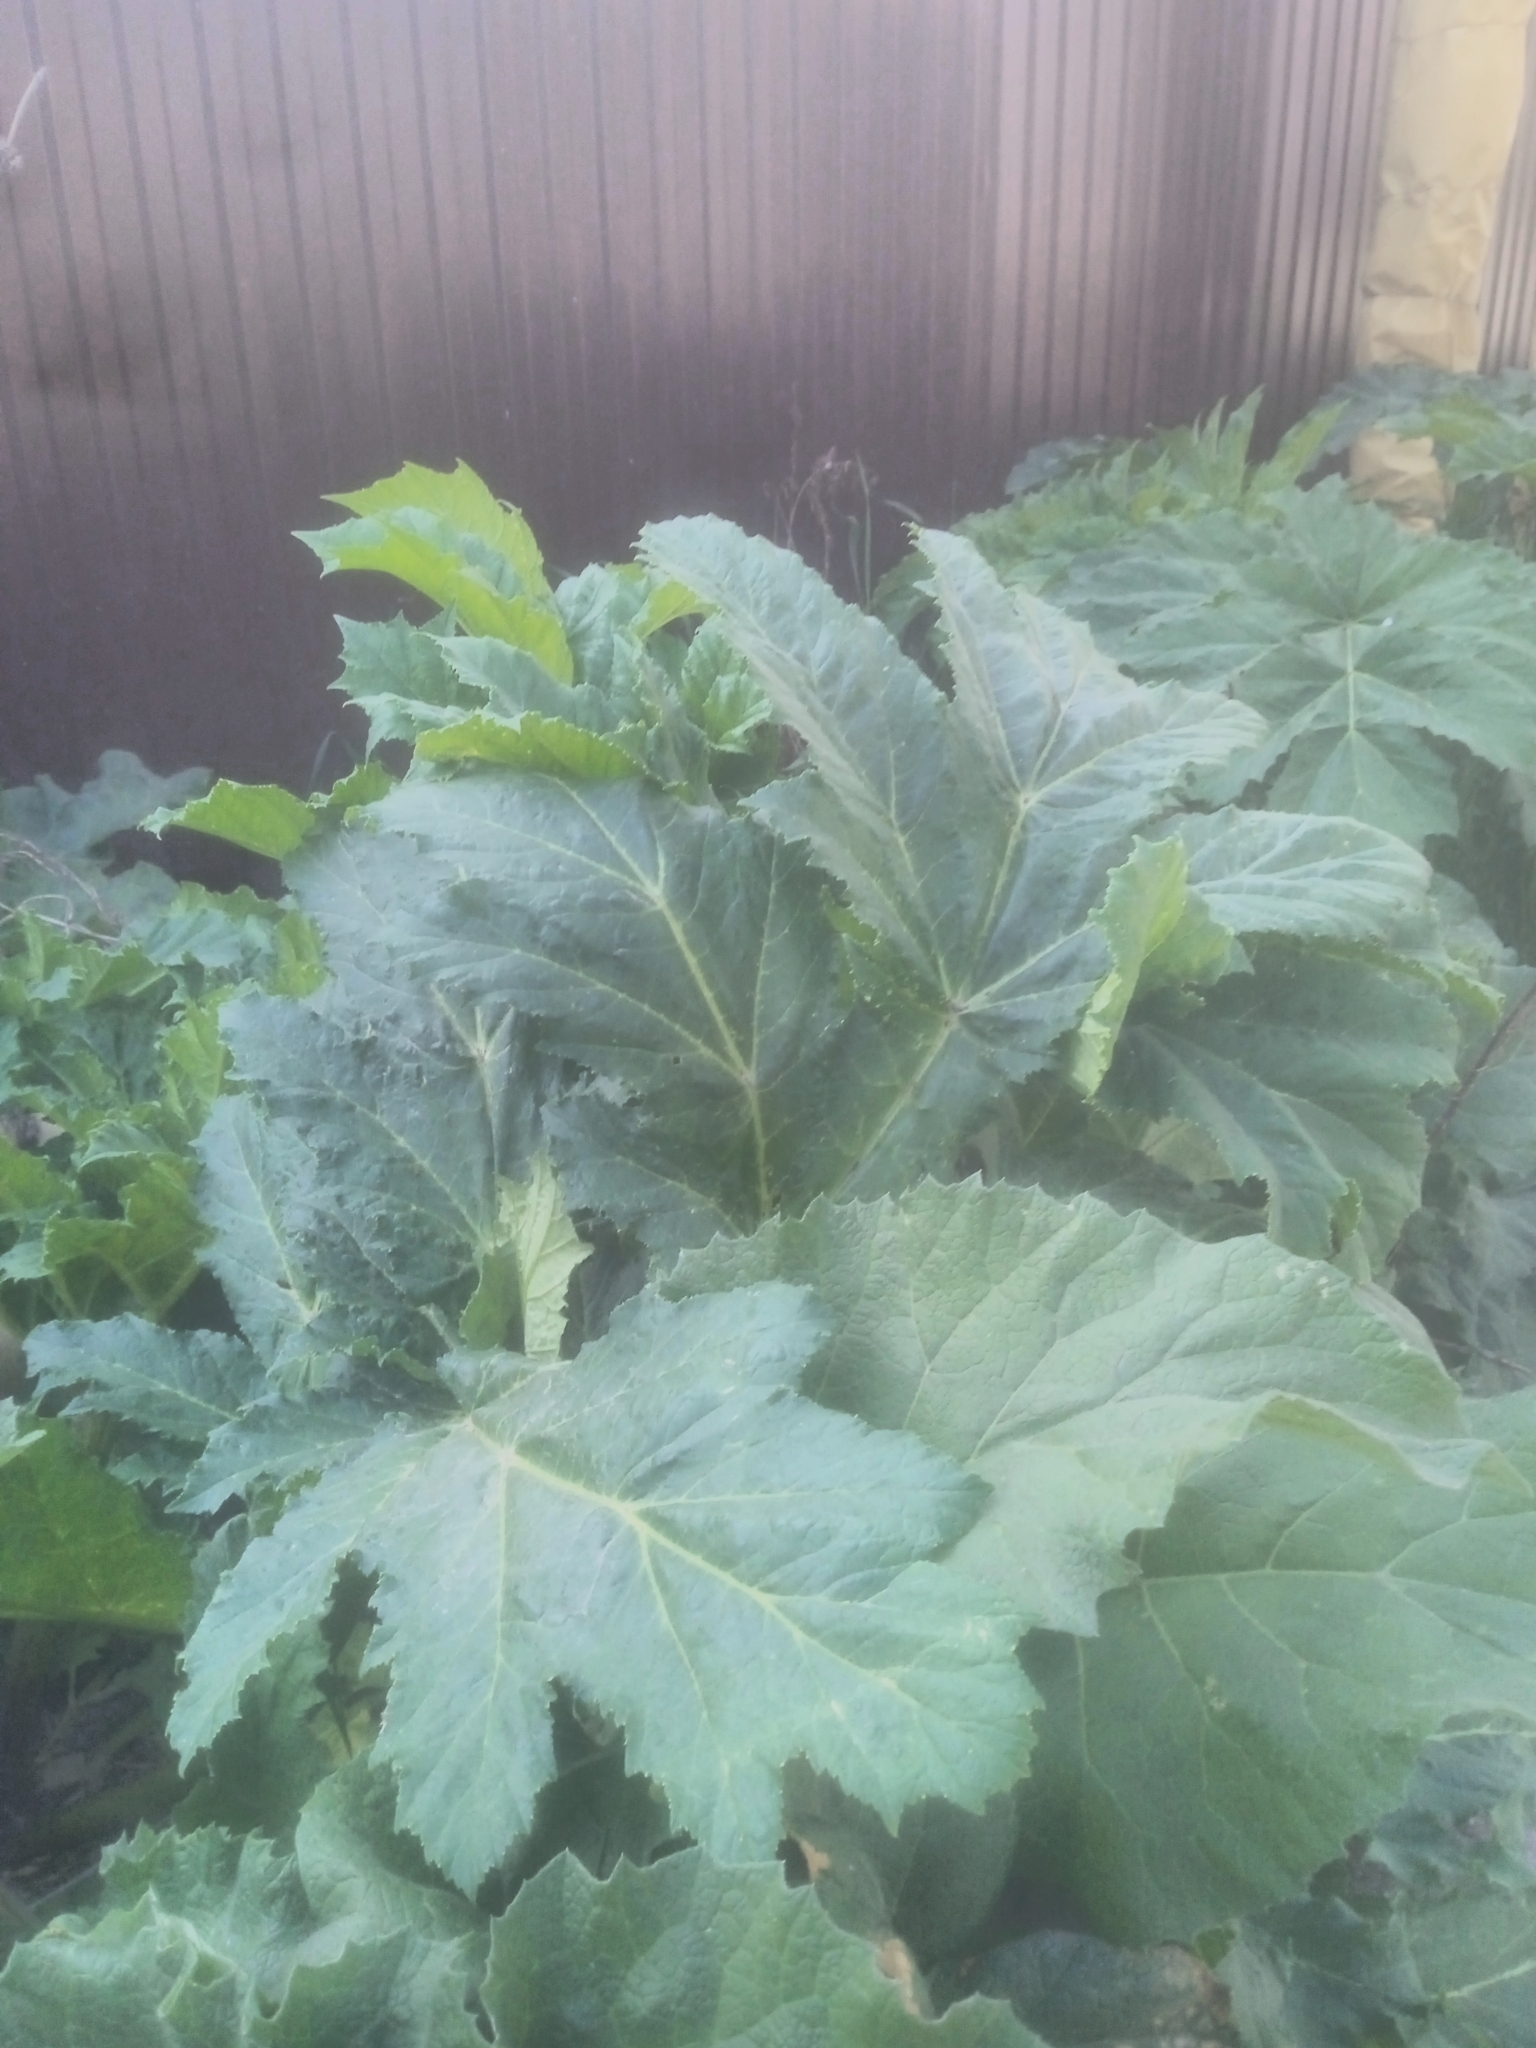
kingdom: Plantae
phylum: Tracheophyta
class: Magnoliopsida
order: Apiales
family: Apiaceae
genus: Heracleum
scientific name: Heracleum sosnowskyi
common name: Sosnowsky's hogweed
